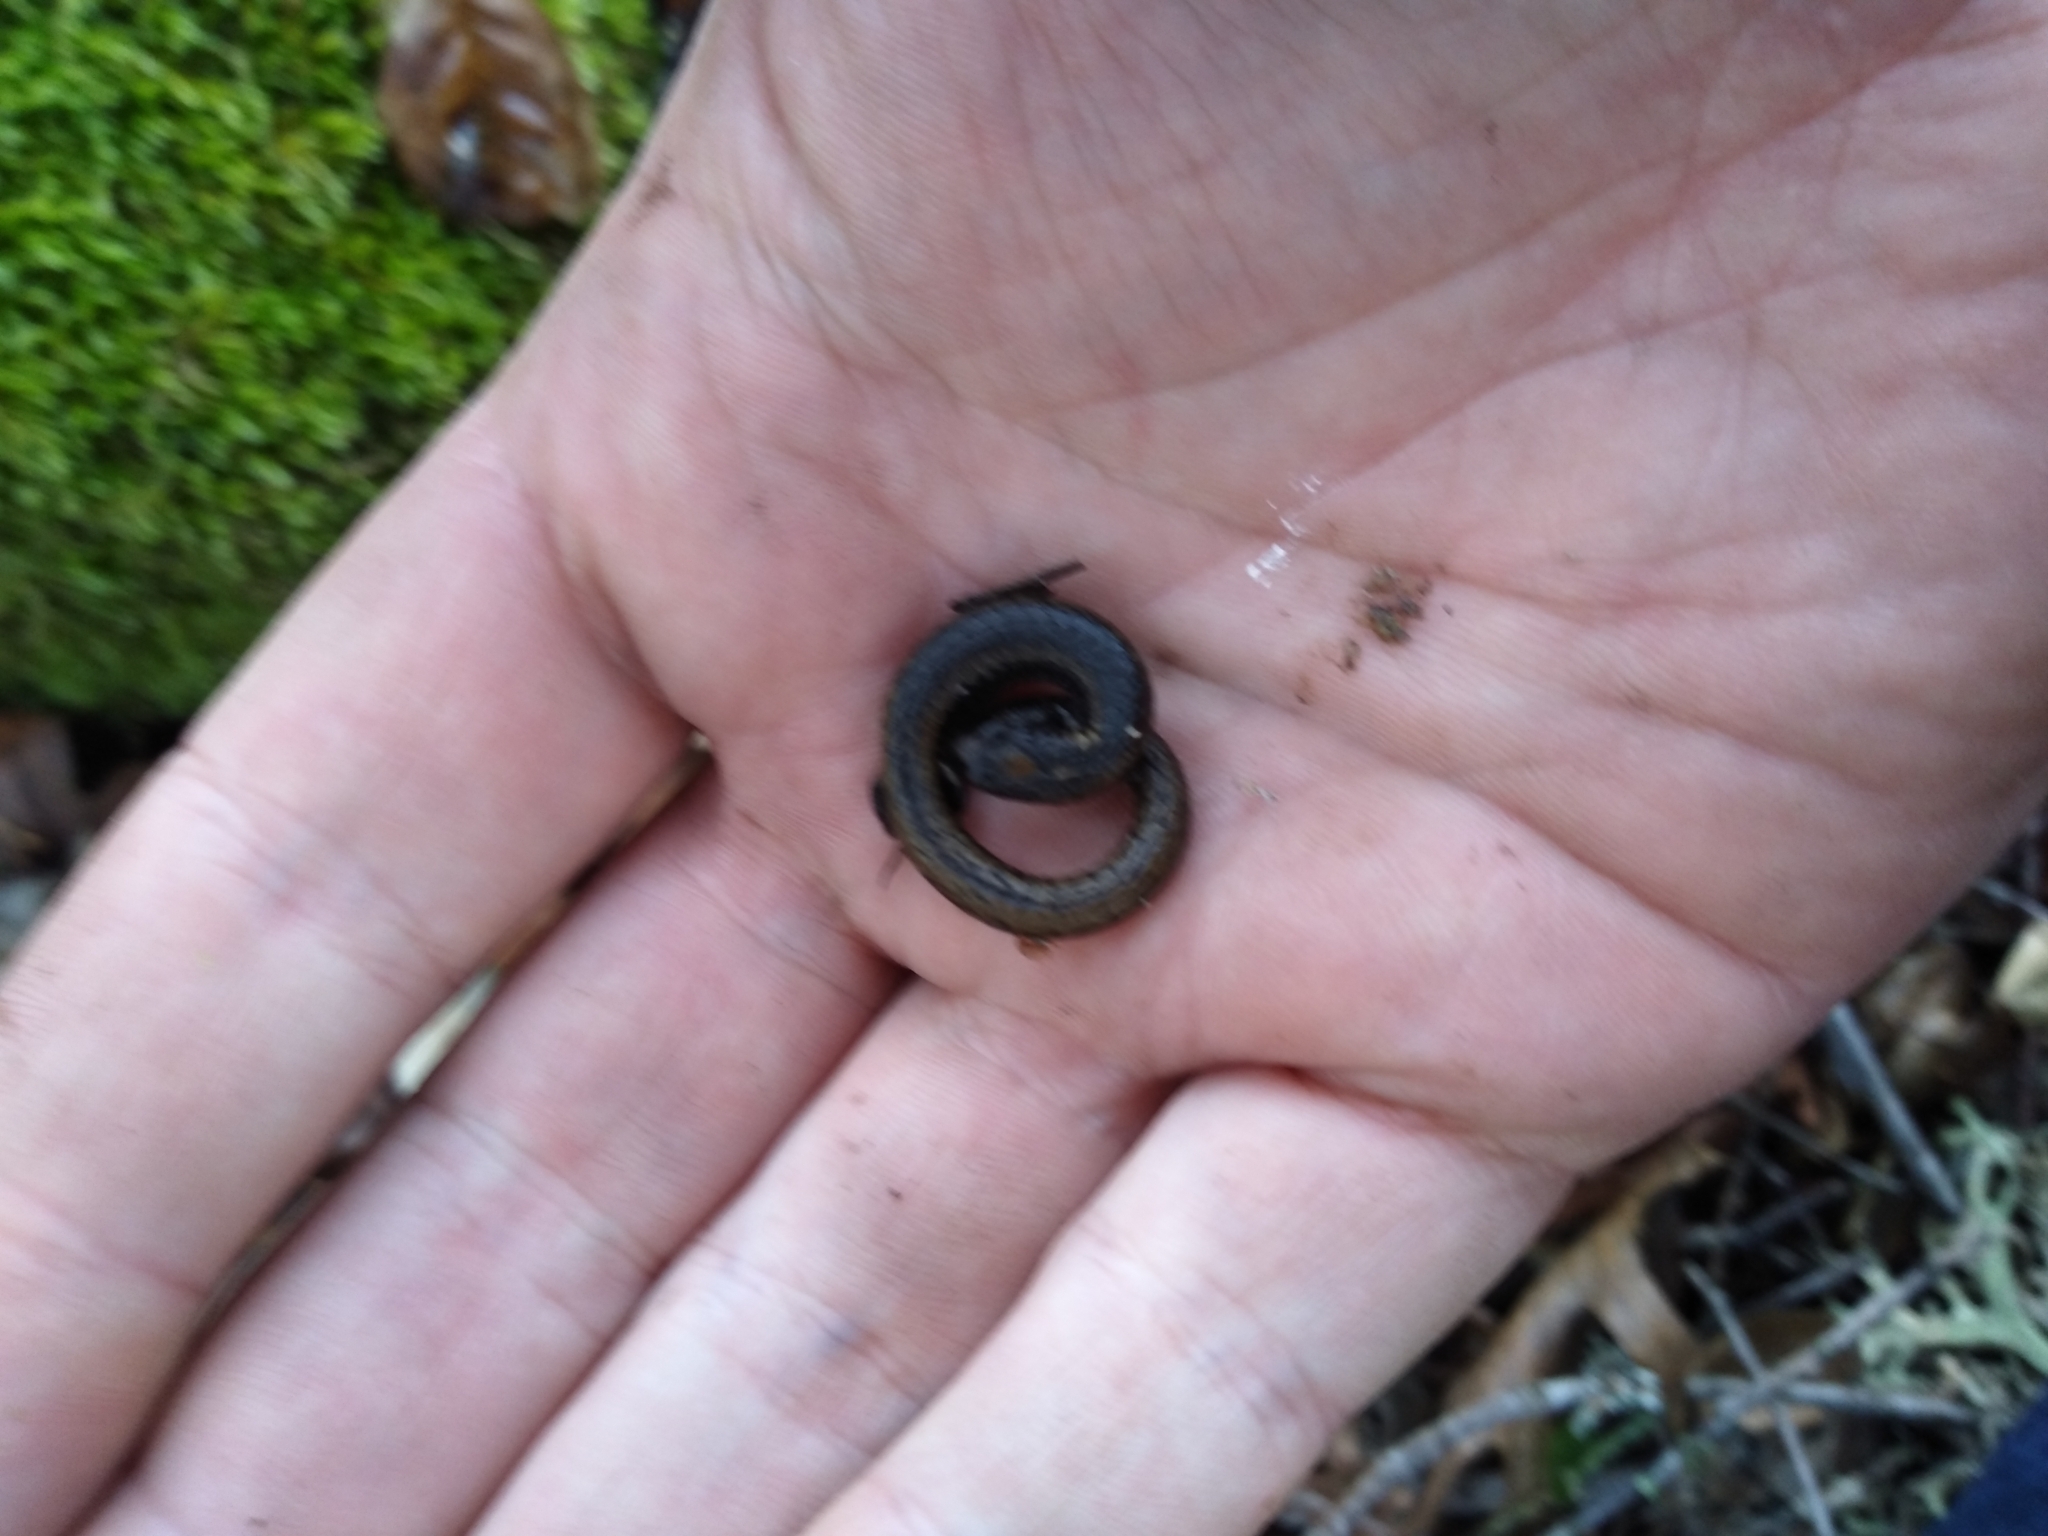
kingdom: Animalia
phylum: Chordata
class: Amphibia
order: Caudata
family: Plethodontidae
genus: Batrachoseps
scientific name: Batrachoseps attenuatus
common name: California slender salamander
